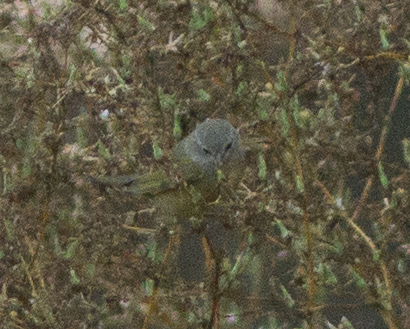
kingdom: Animalia
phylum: Chordata
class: Aves
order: Passeriformes
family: Parulidae
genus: Leiothlypis
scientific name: Leiothlypis celata
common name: Orange-crowned warbler
